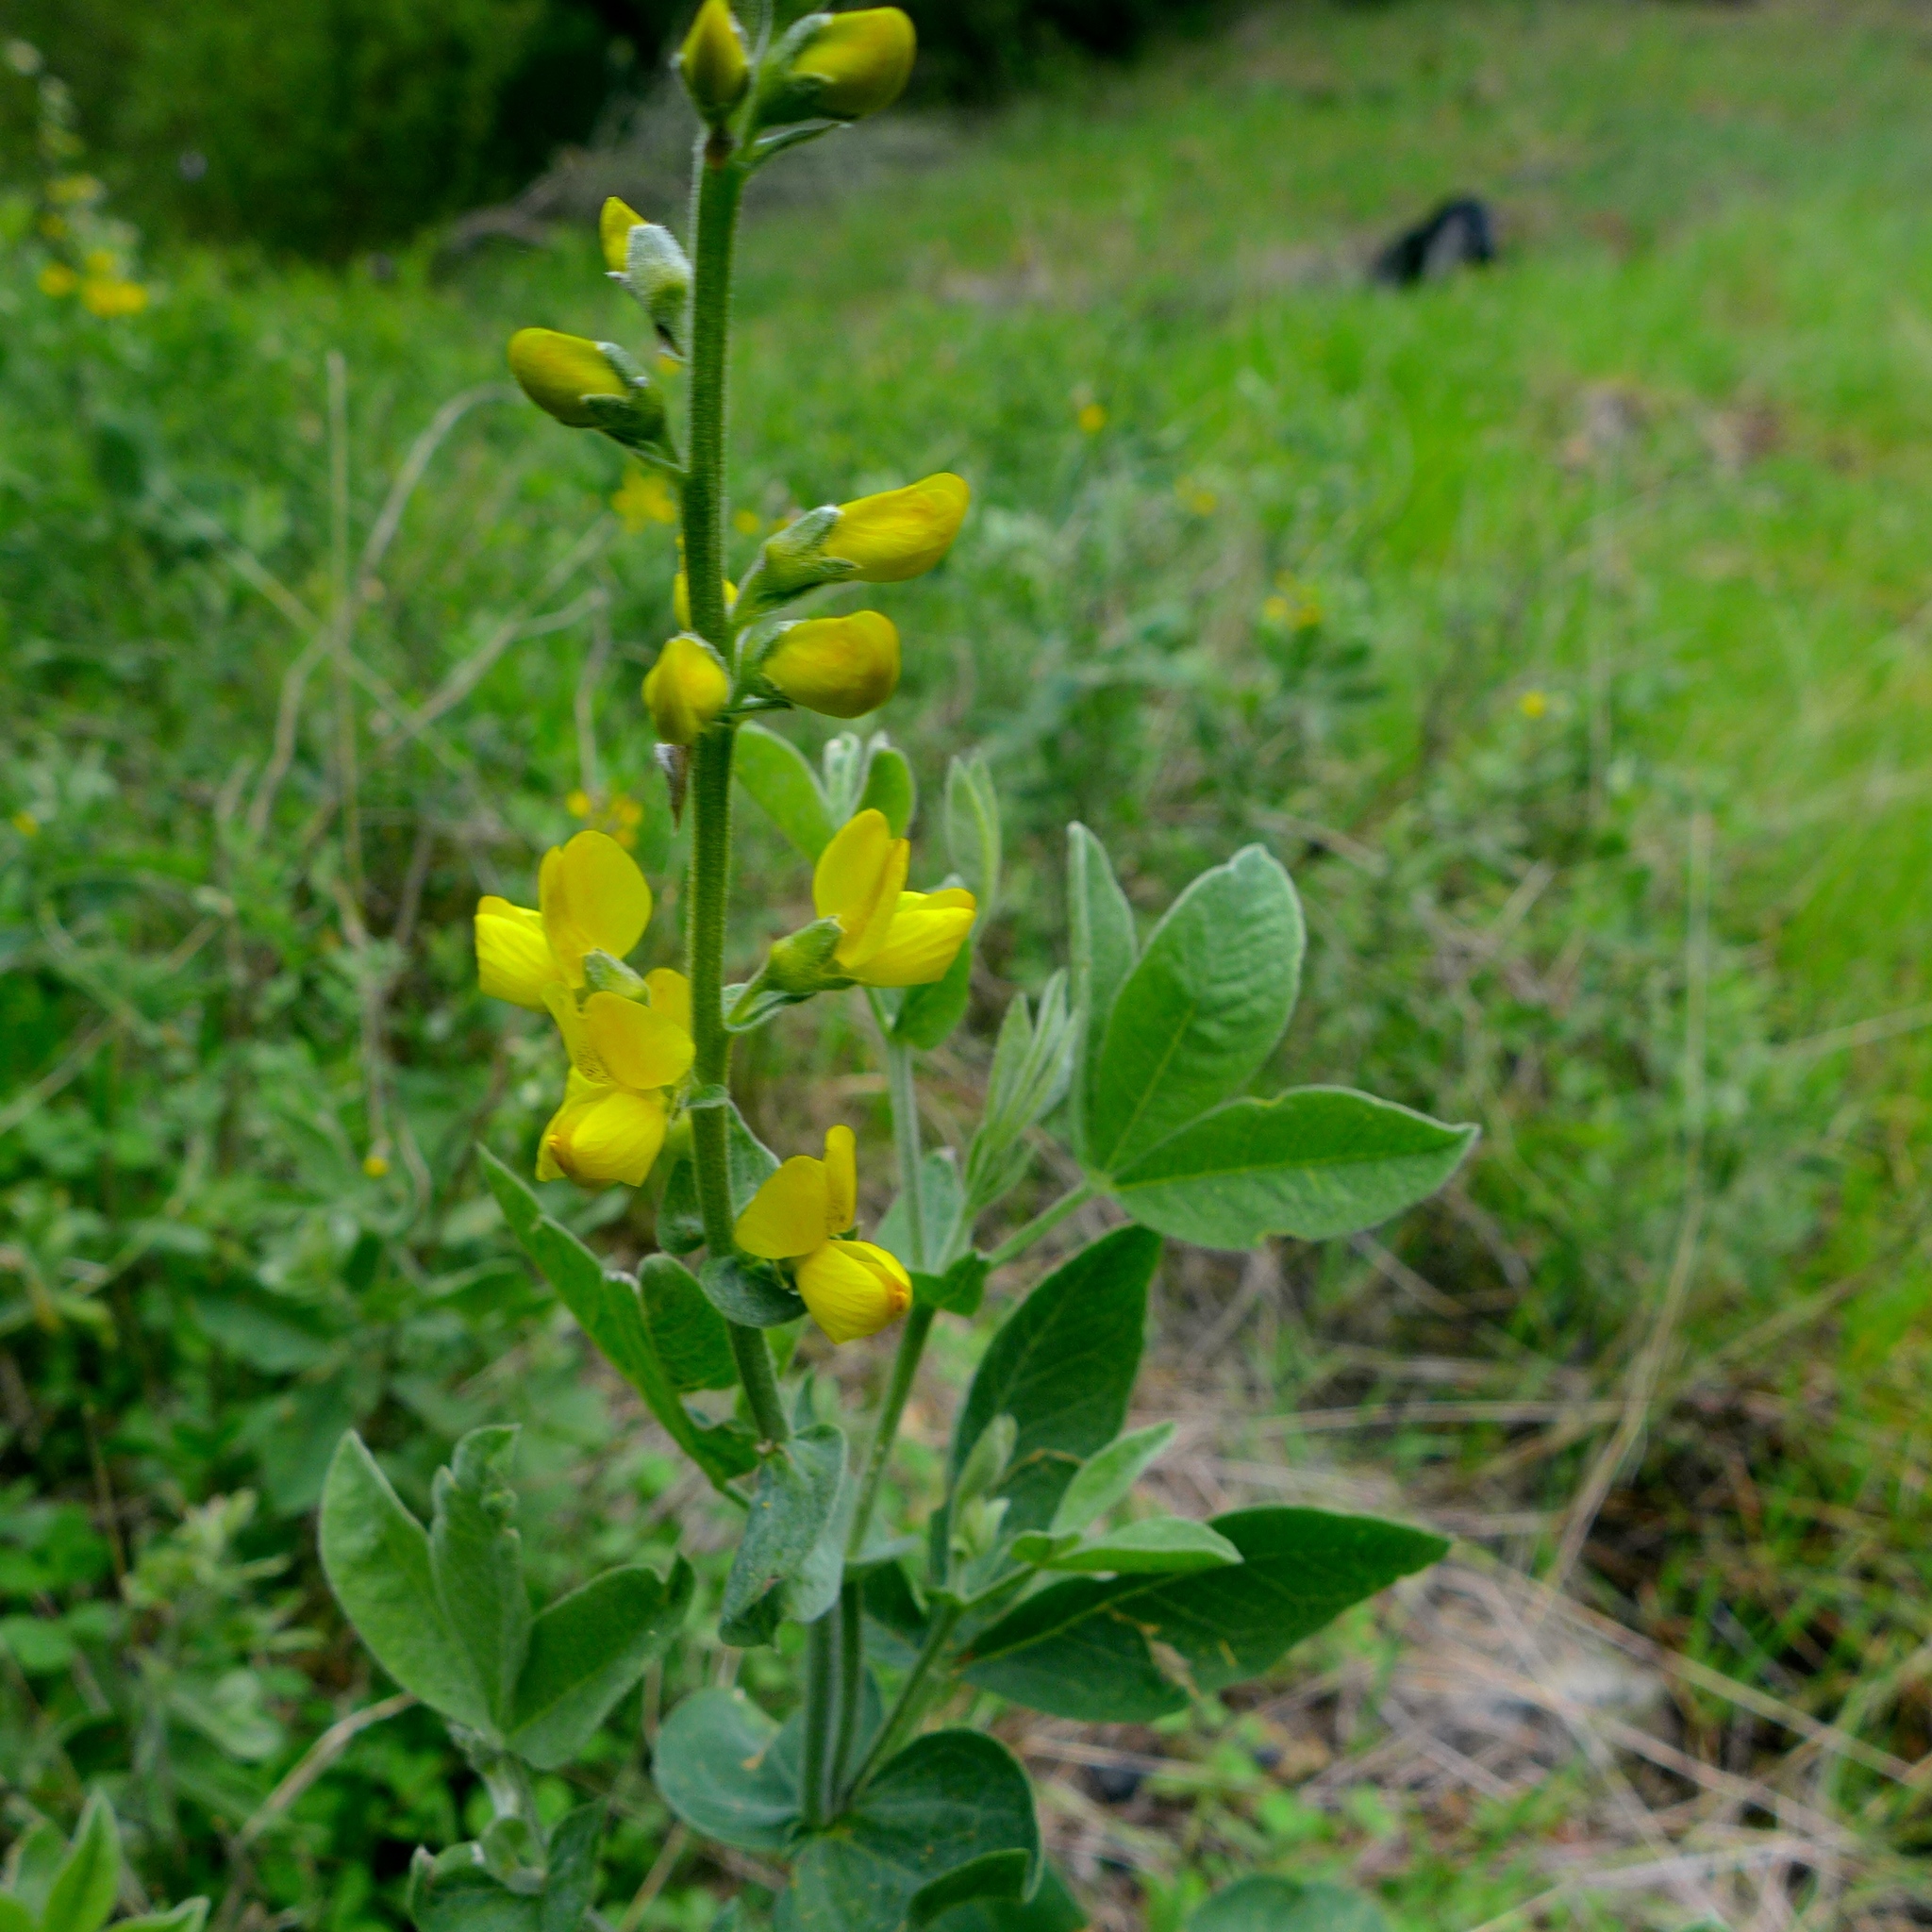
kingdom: Plantae
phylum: Tracheophyta
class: Magnoliopsida
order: Fabales
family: Fabaceae
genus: Thermopsis
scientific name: Thermopsis californica
